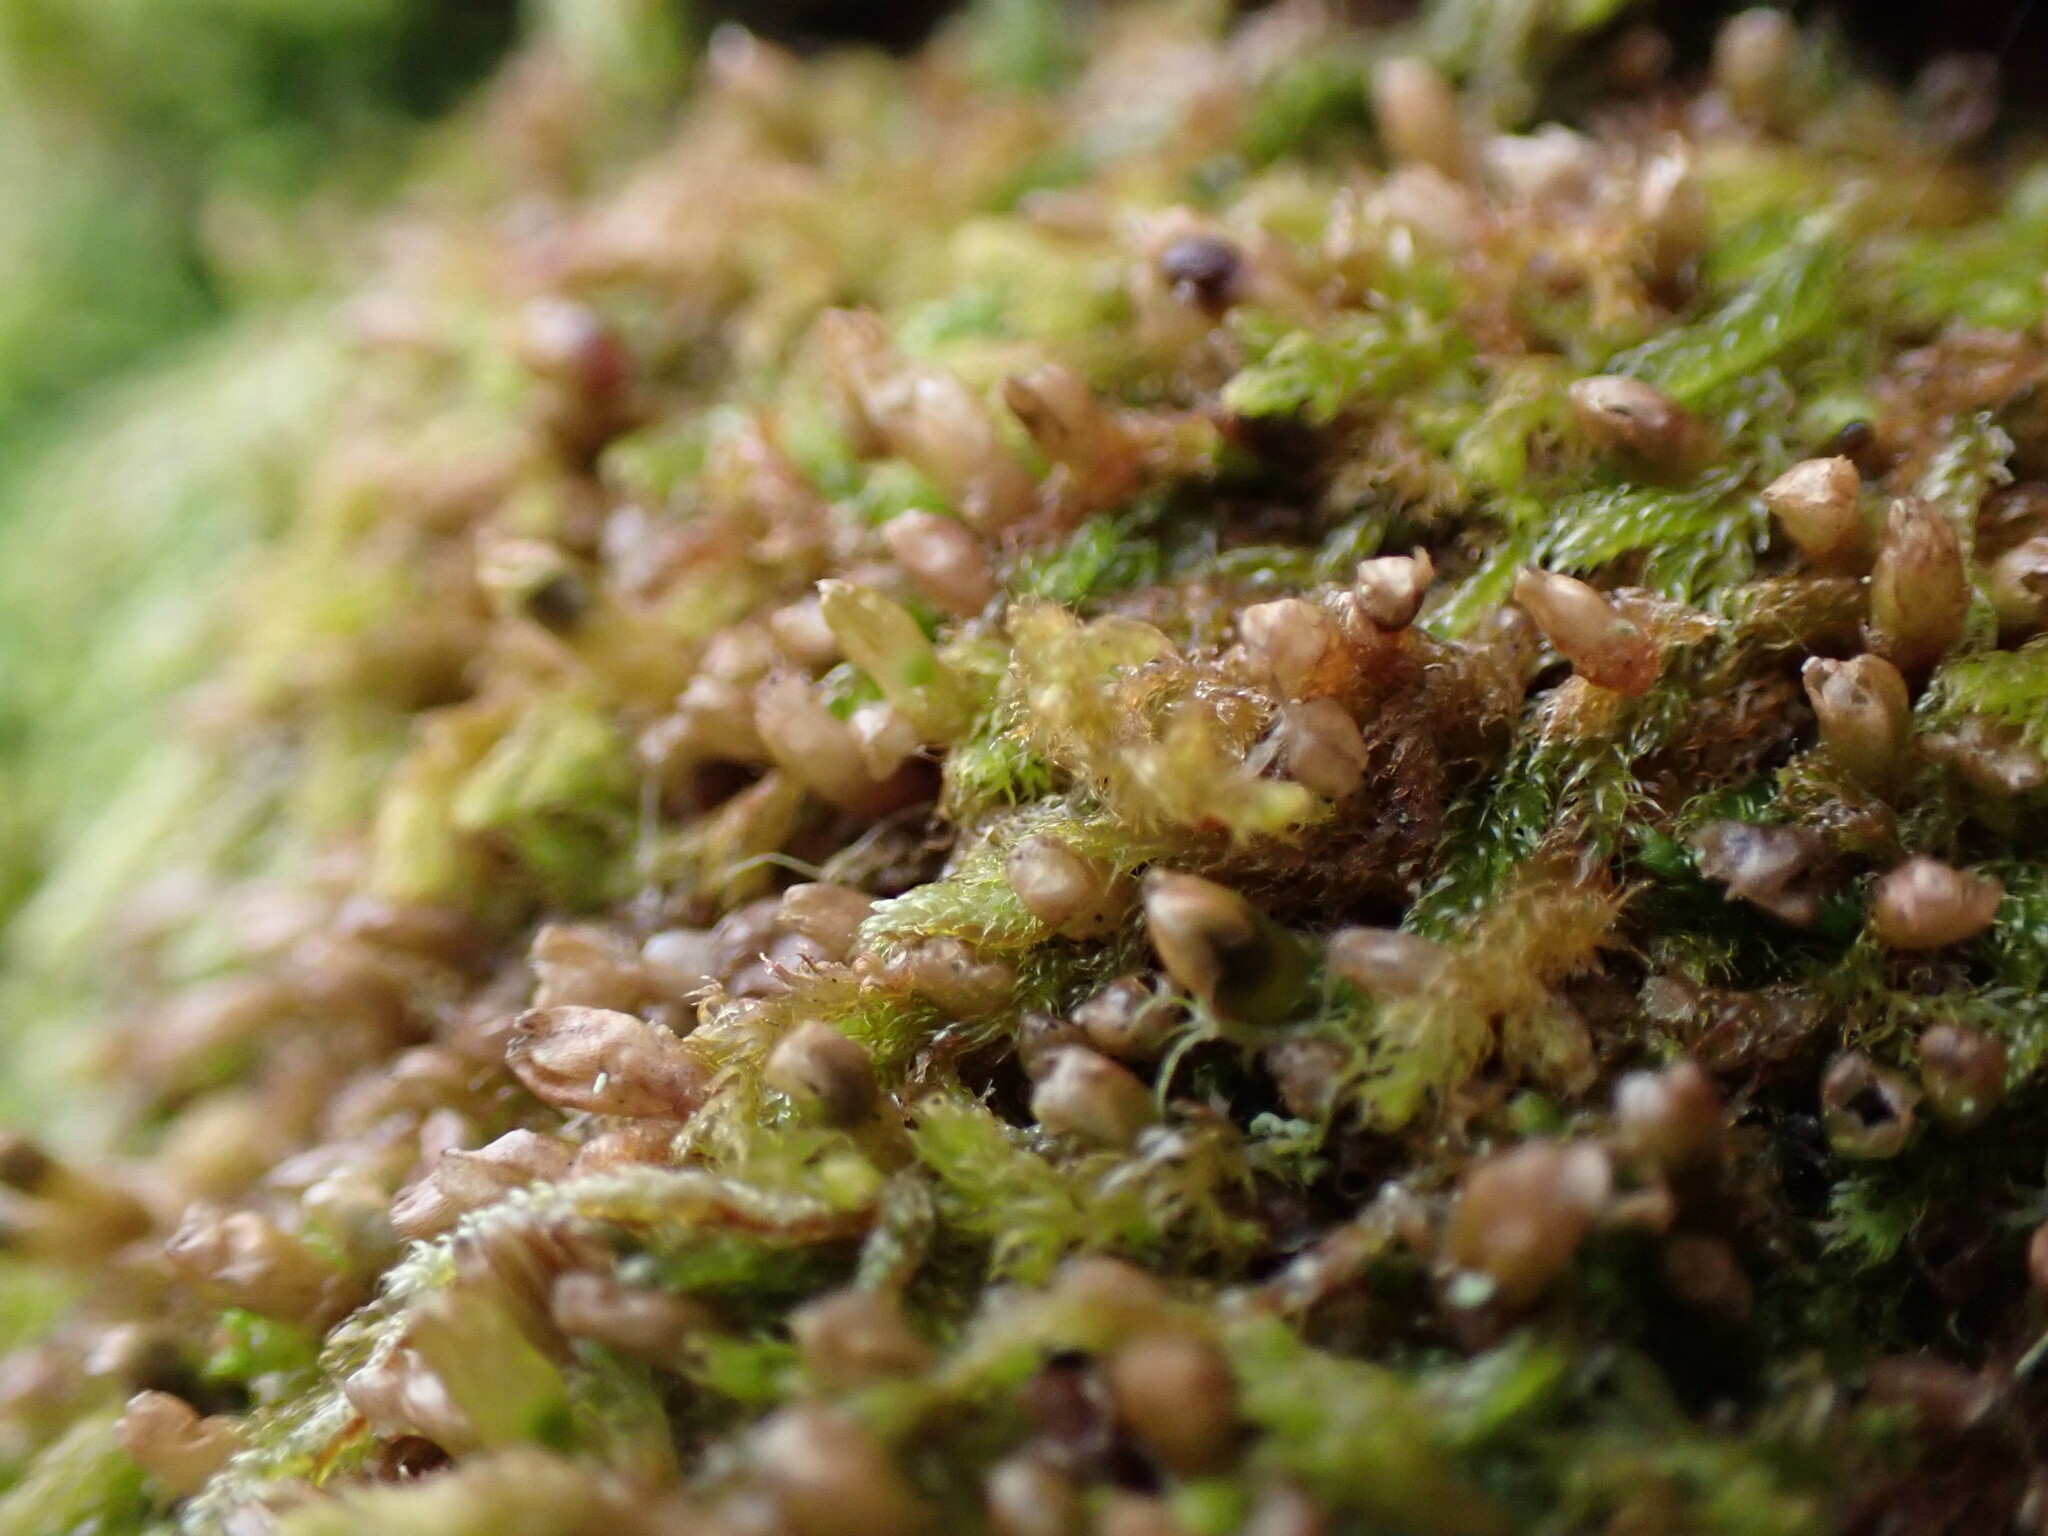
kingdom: Plantae
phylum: Marchantiophyta
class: Jungermanniopsida
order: Ptilidiales
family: Ptilidiaceae
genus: Ptilidium
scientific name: Ptilidium californicum
